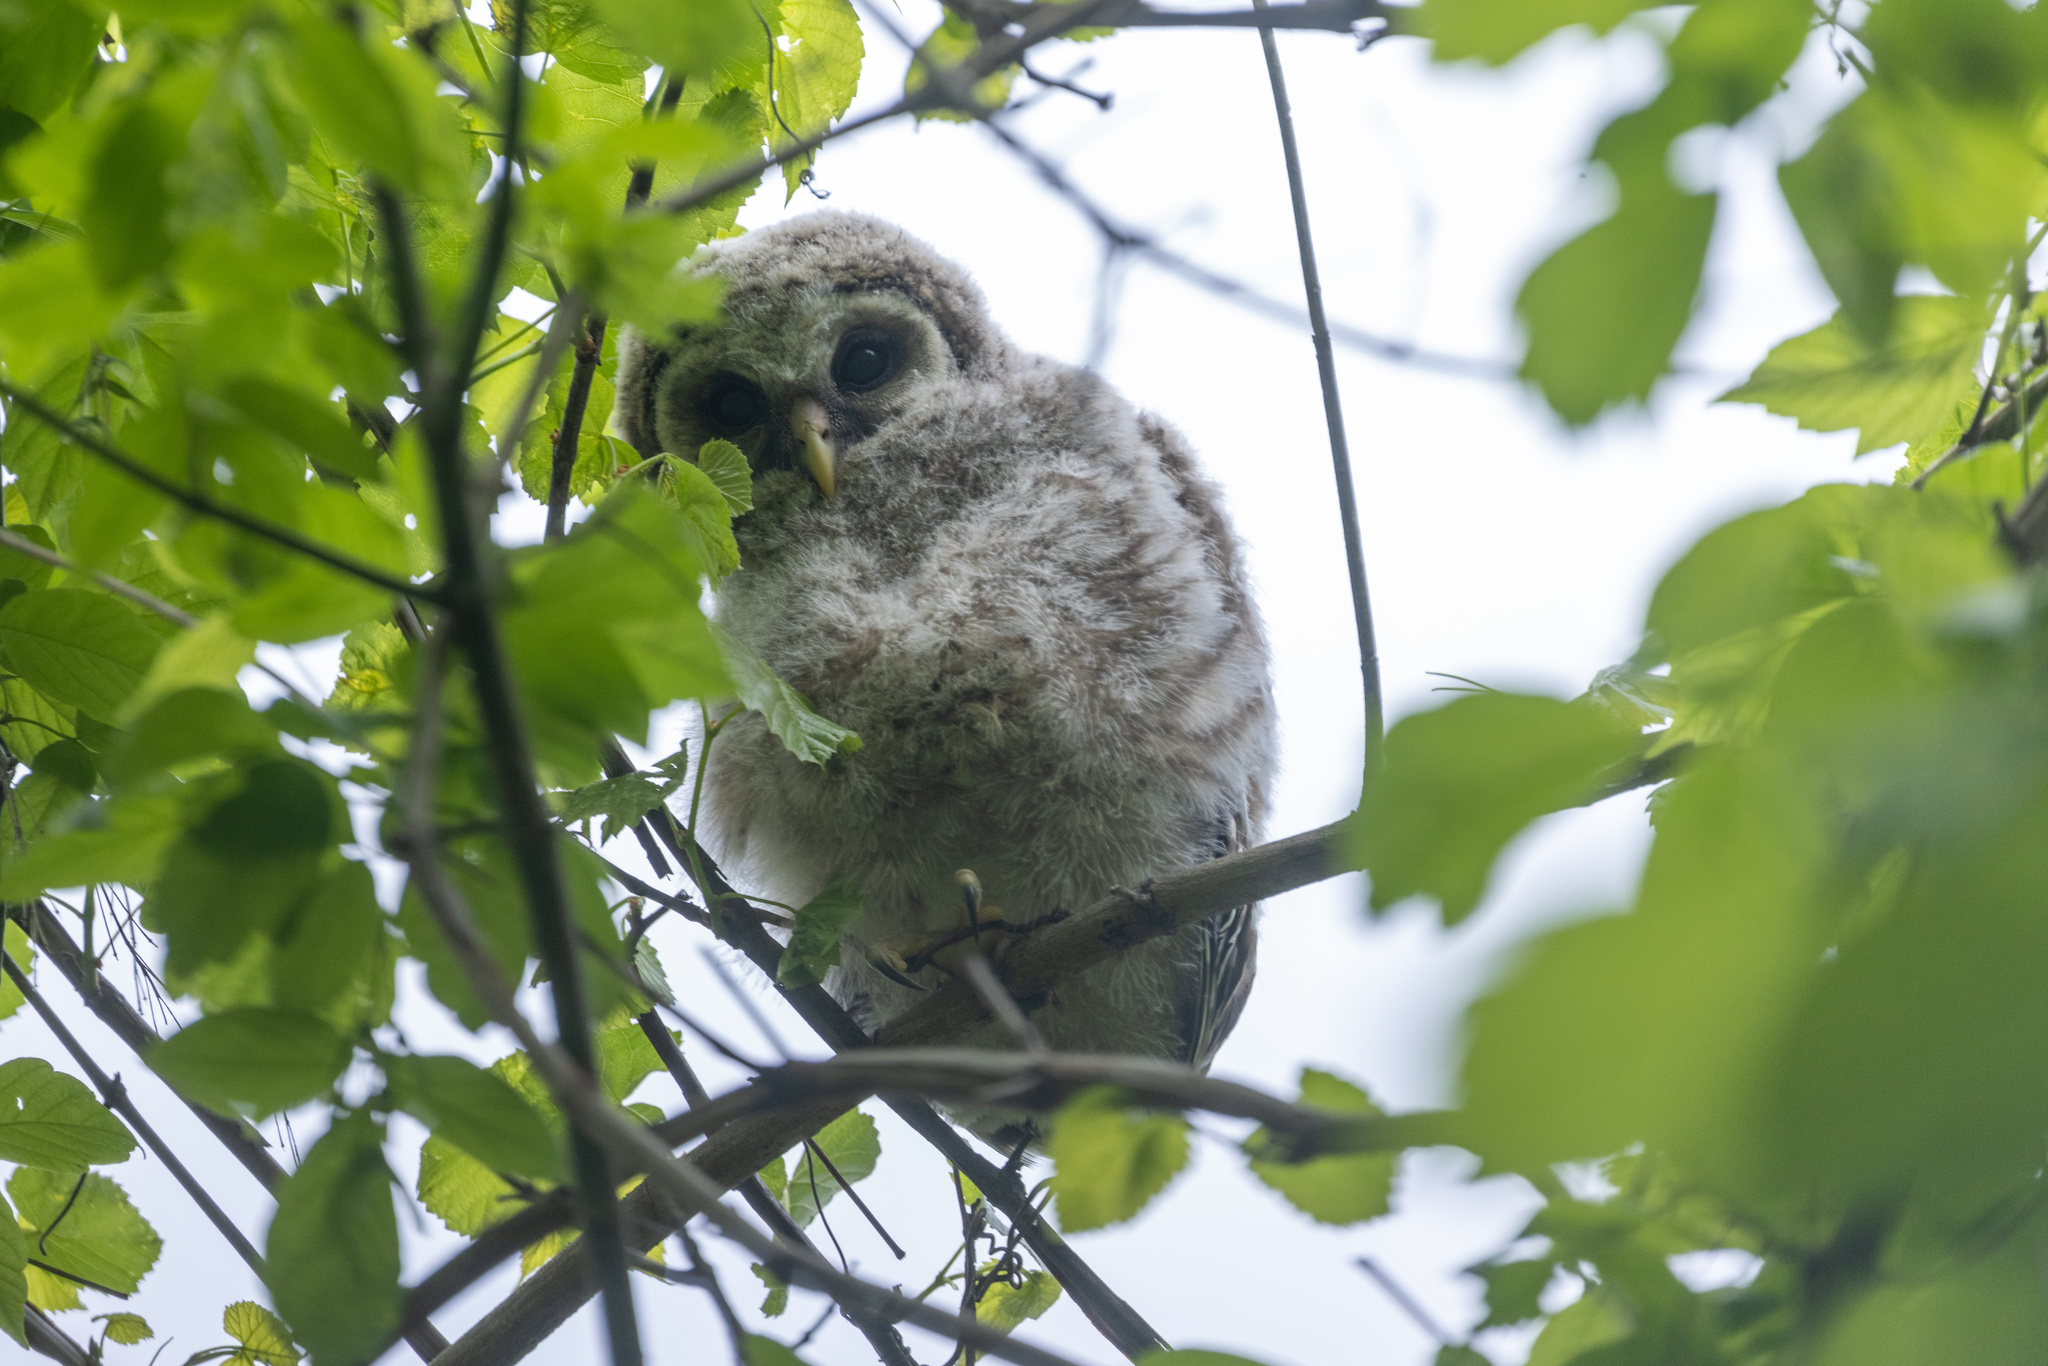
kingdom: Animalia
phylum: Chordata
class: Aves
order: Strigiformes
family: Strigidae
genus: Strix
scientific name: Strix varia
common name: Barred owl
